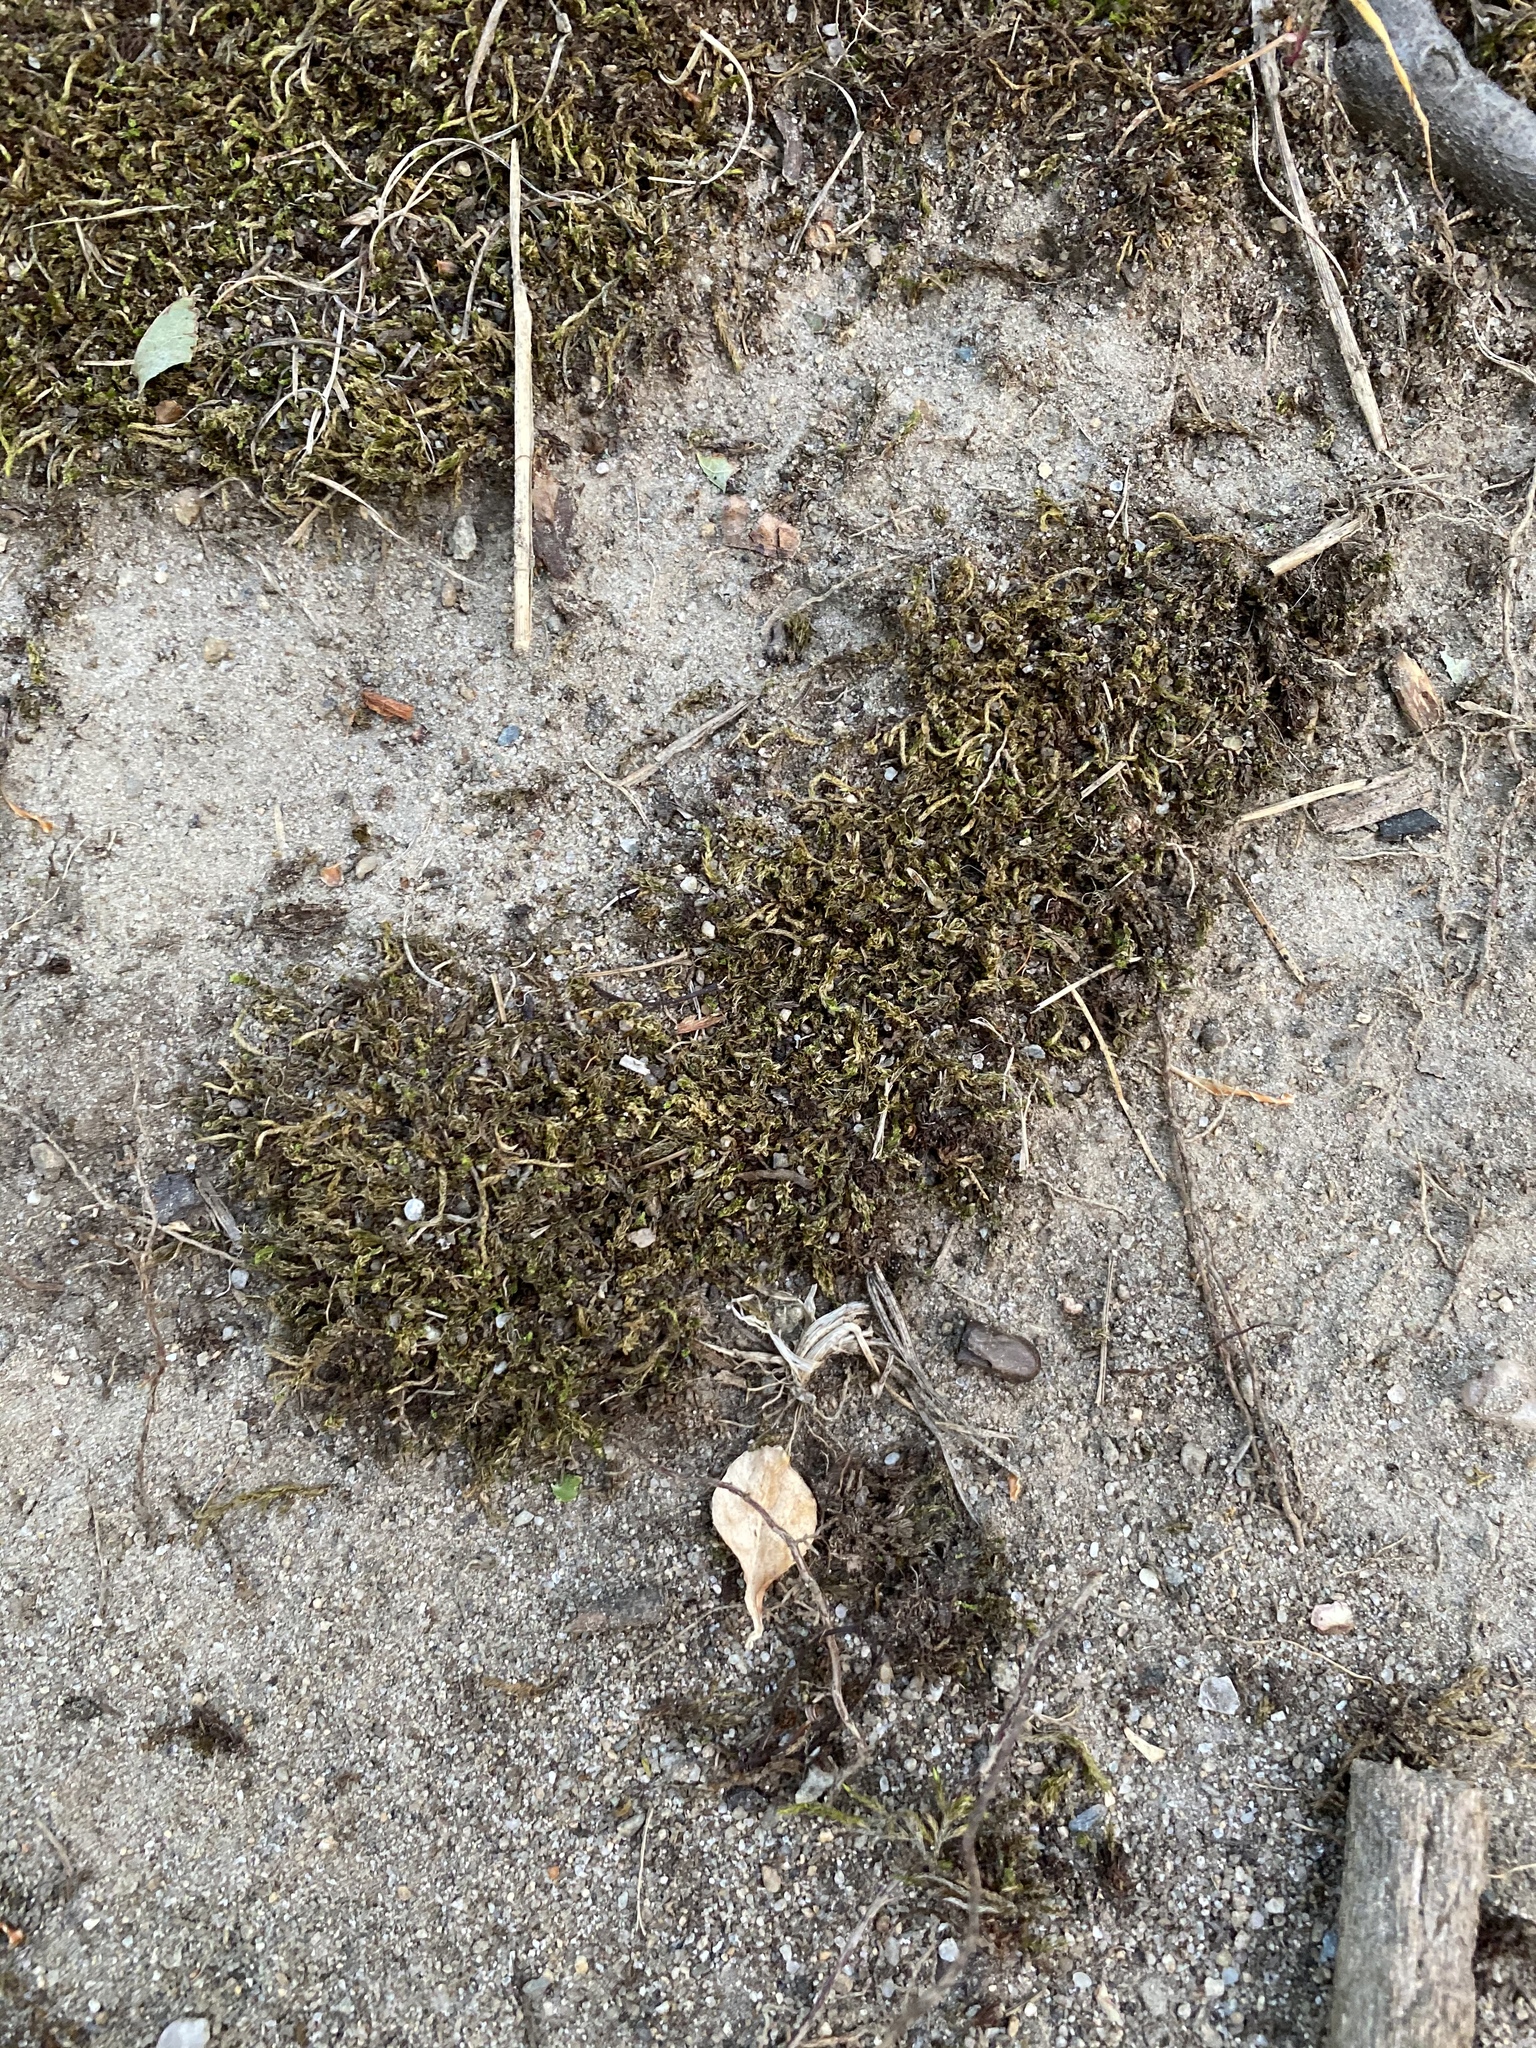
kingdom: Plantae
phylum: Bryophyta
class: Bryopsida
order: Orthotrichales
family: Orthotrichaceae
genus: Ulota
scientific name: Ulota crispa
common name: Crisped pincushion moss
